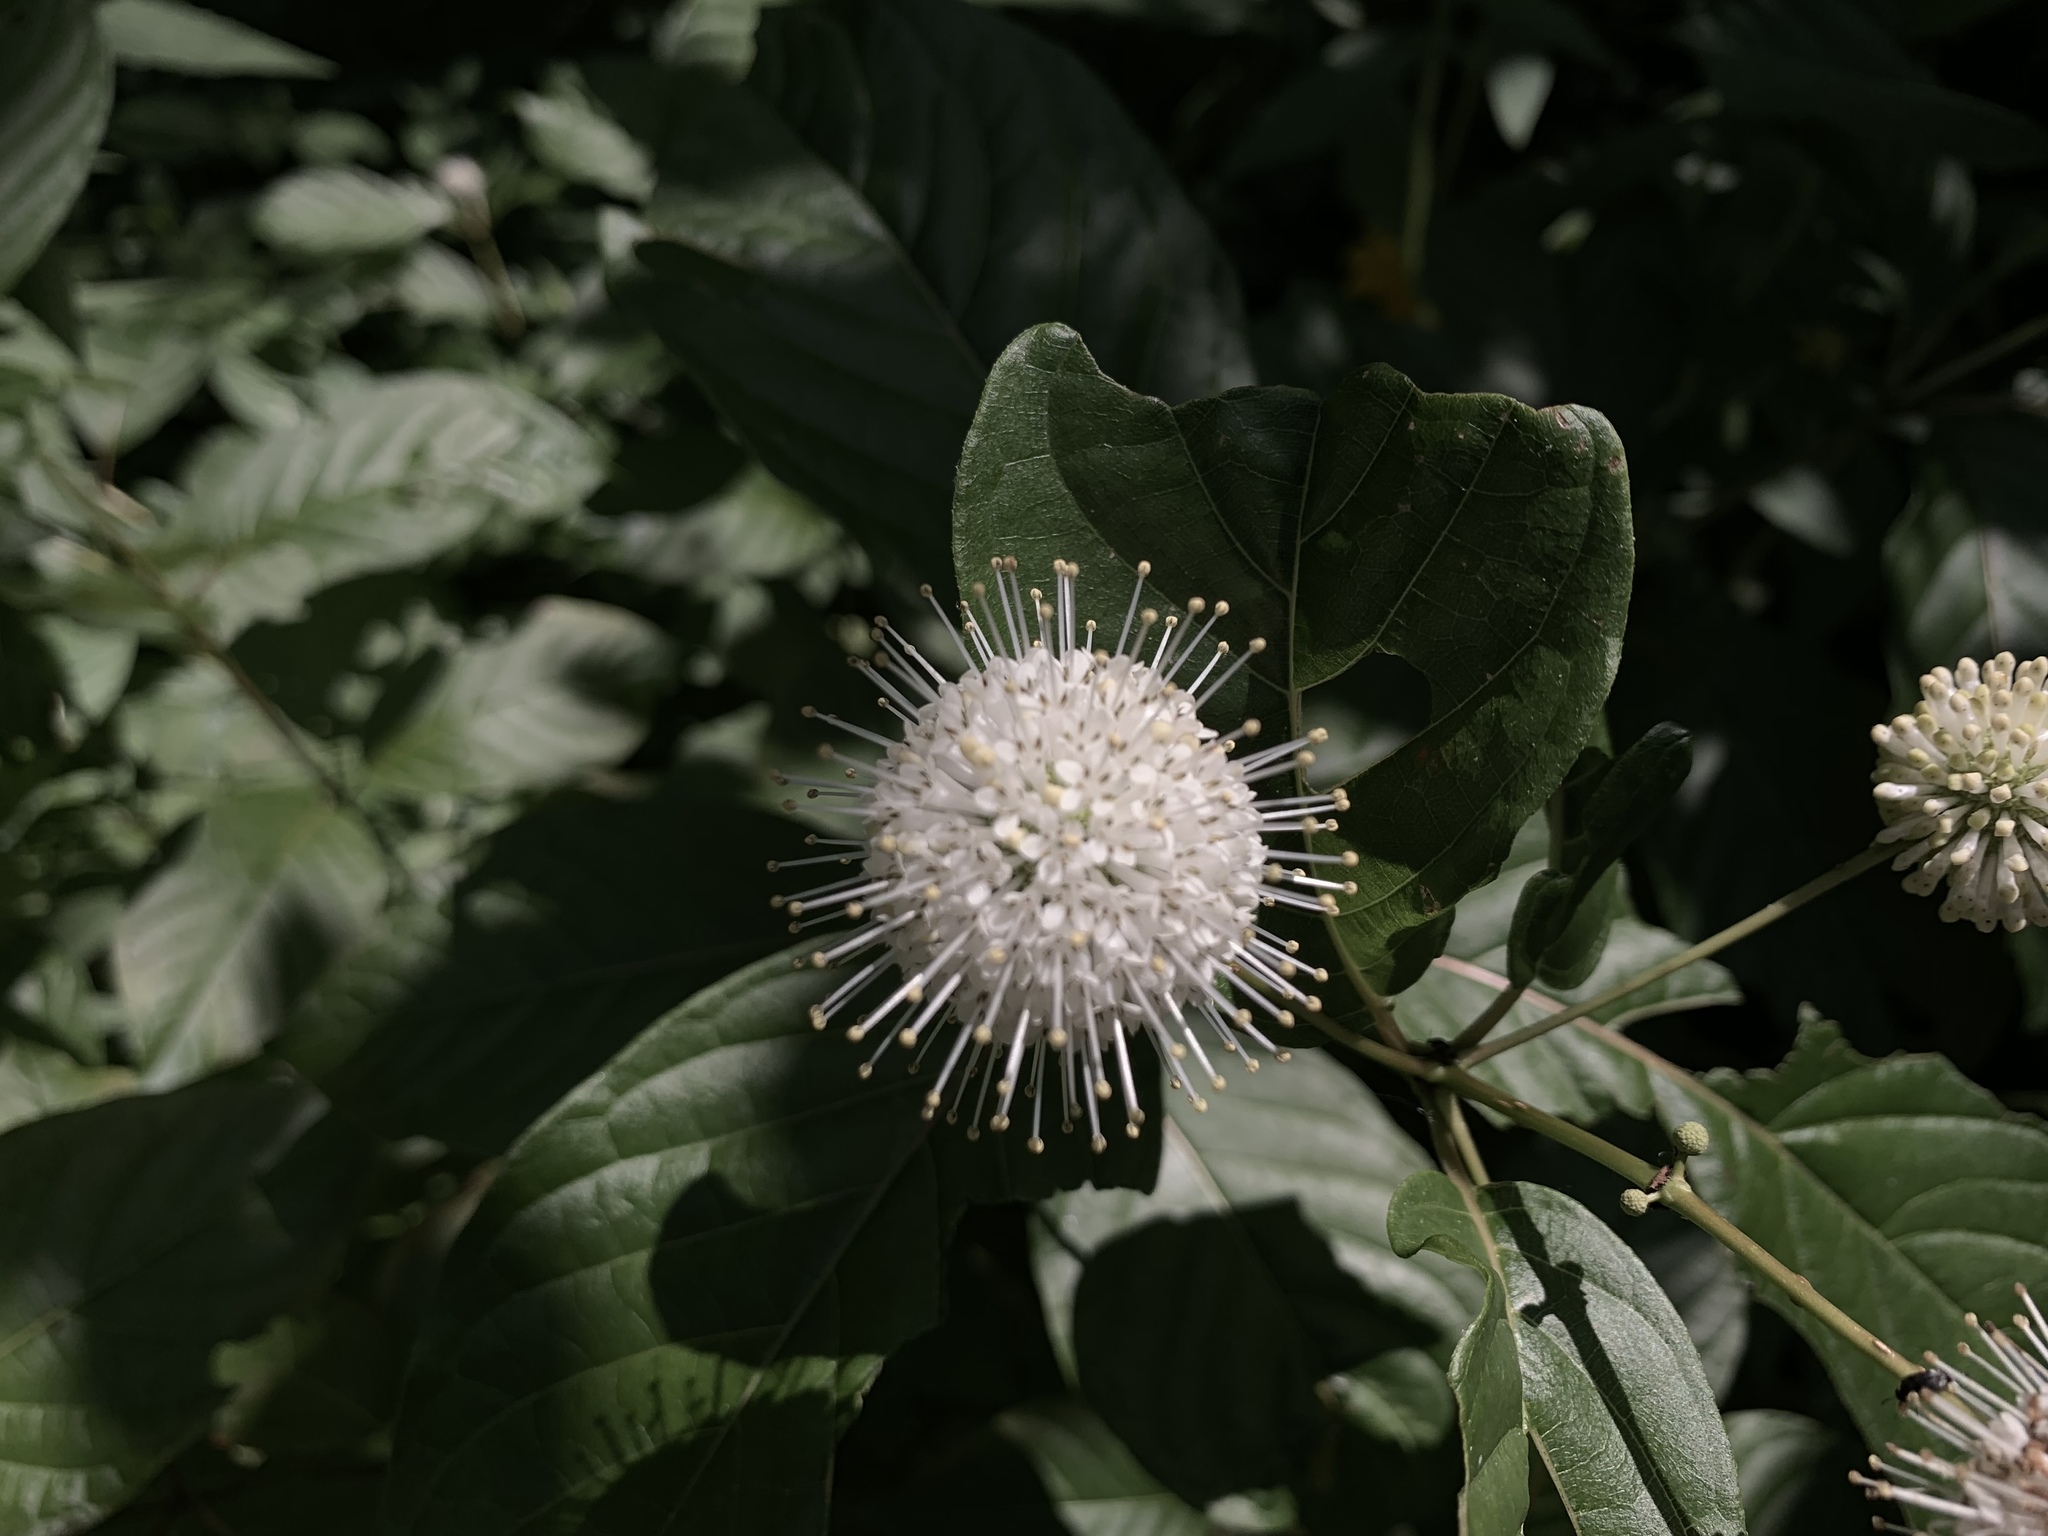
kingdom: Plantae
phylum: Tracheophyta
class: Magnoliopsida
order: Gentianales
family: Rubiaceae
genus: Cephalanthus
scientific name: Cephalanthus occidentalis
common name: Button-willow
